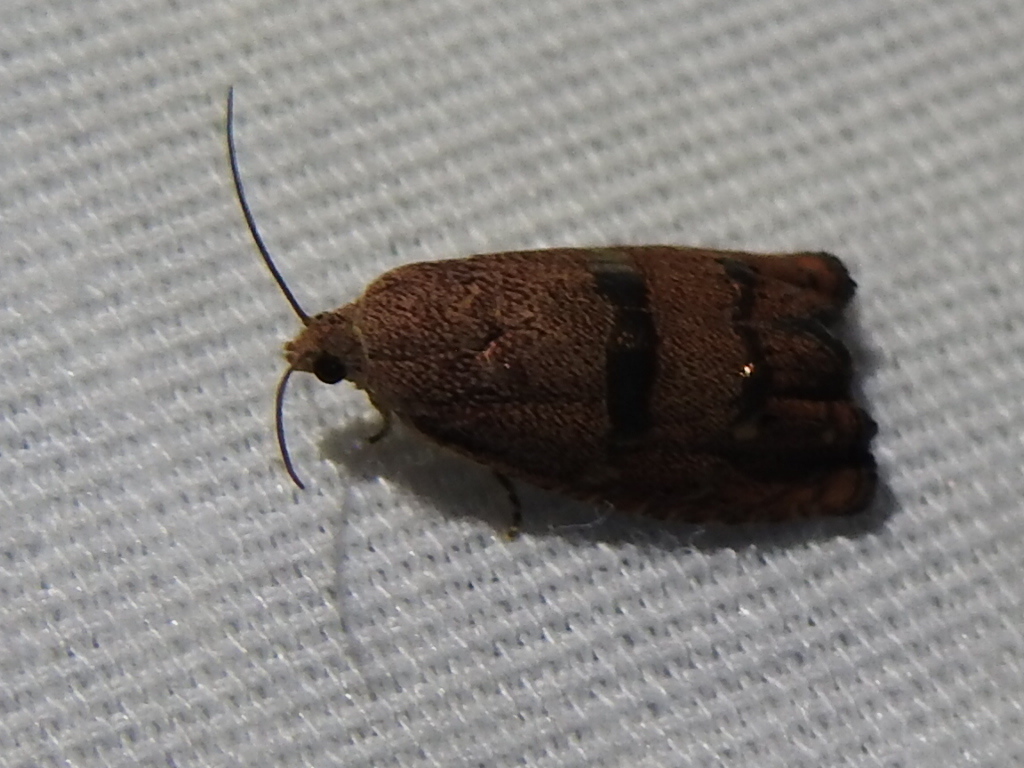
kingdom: Animalia
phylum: Arthropoda
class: Insecta
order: Lepidoptera
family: Tortricidae
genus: Cydia
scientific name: Cydia latiferreana
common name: Filbertworm moth
